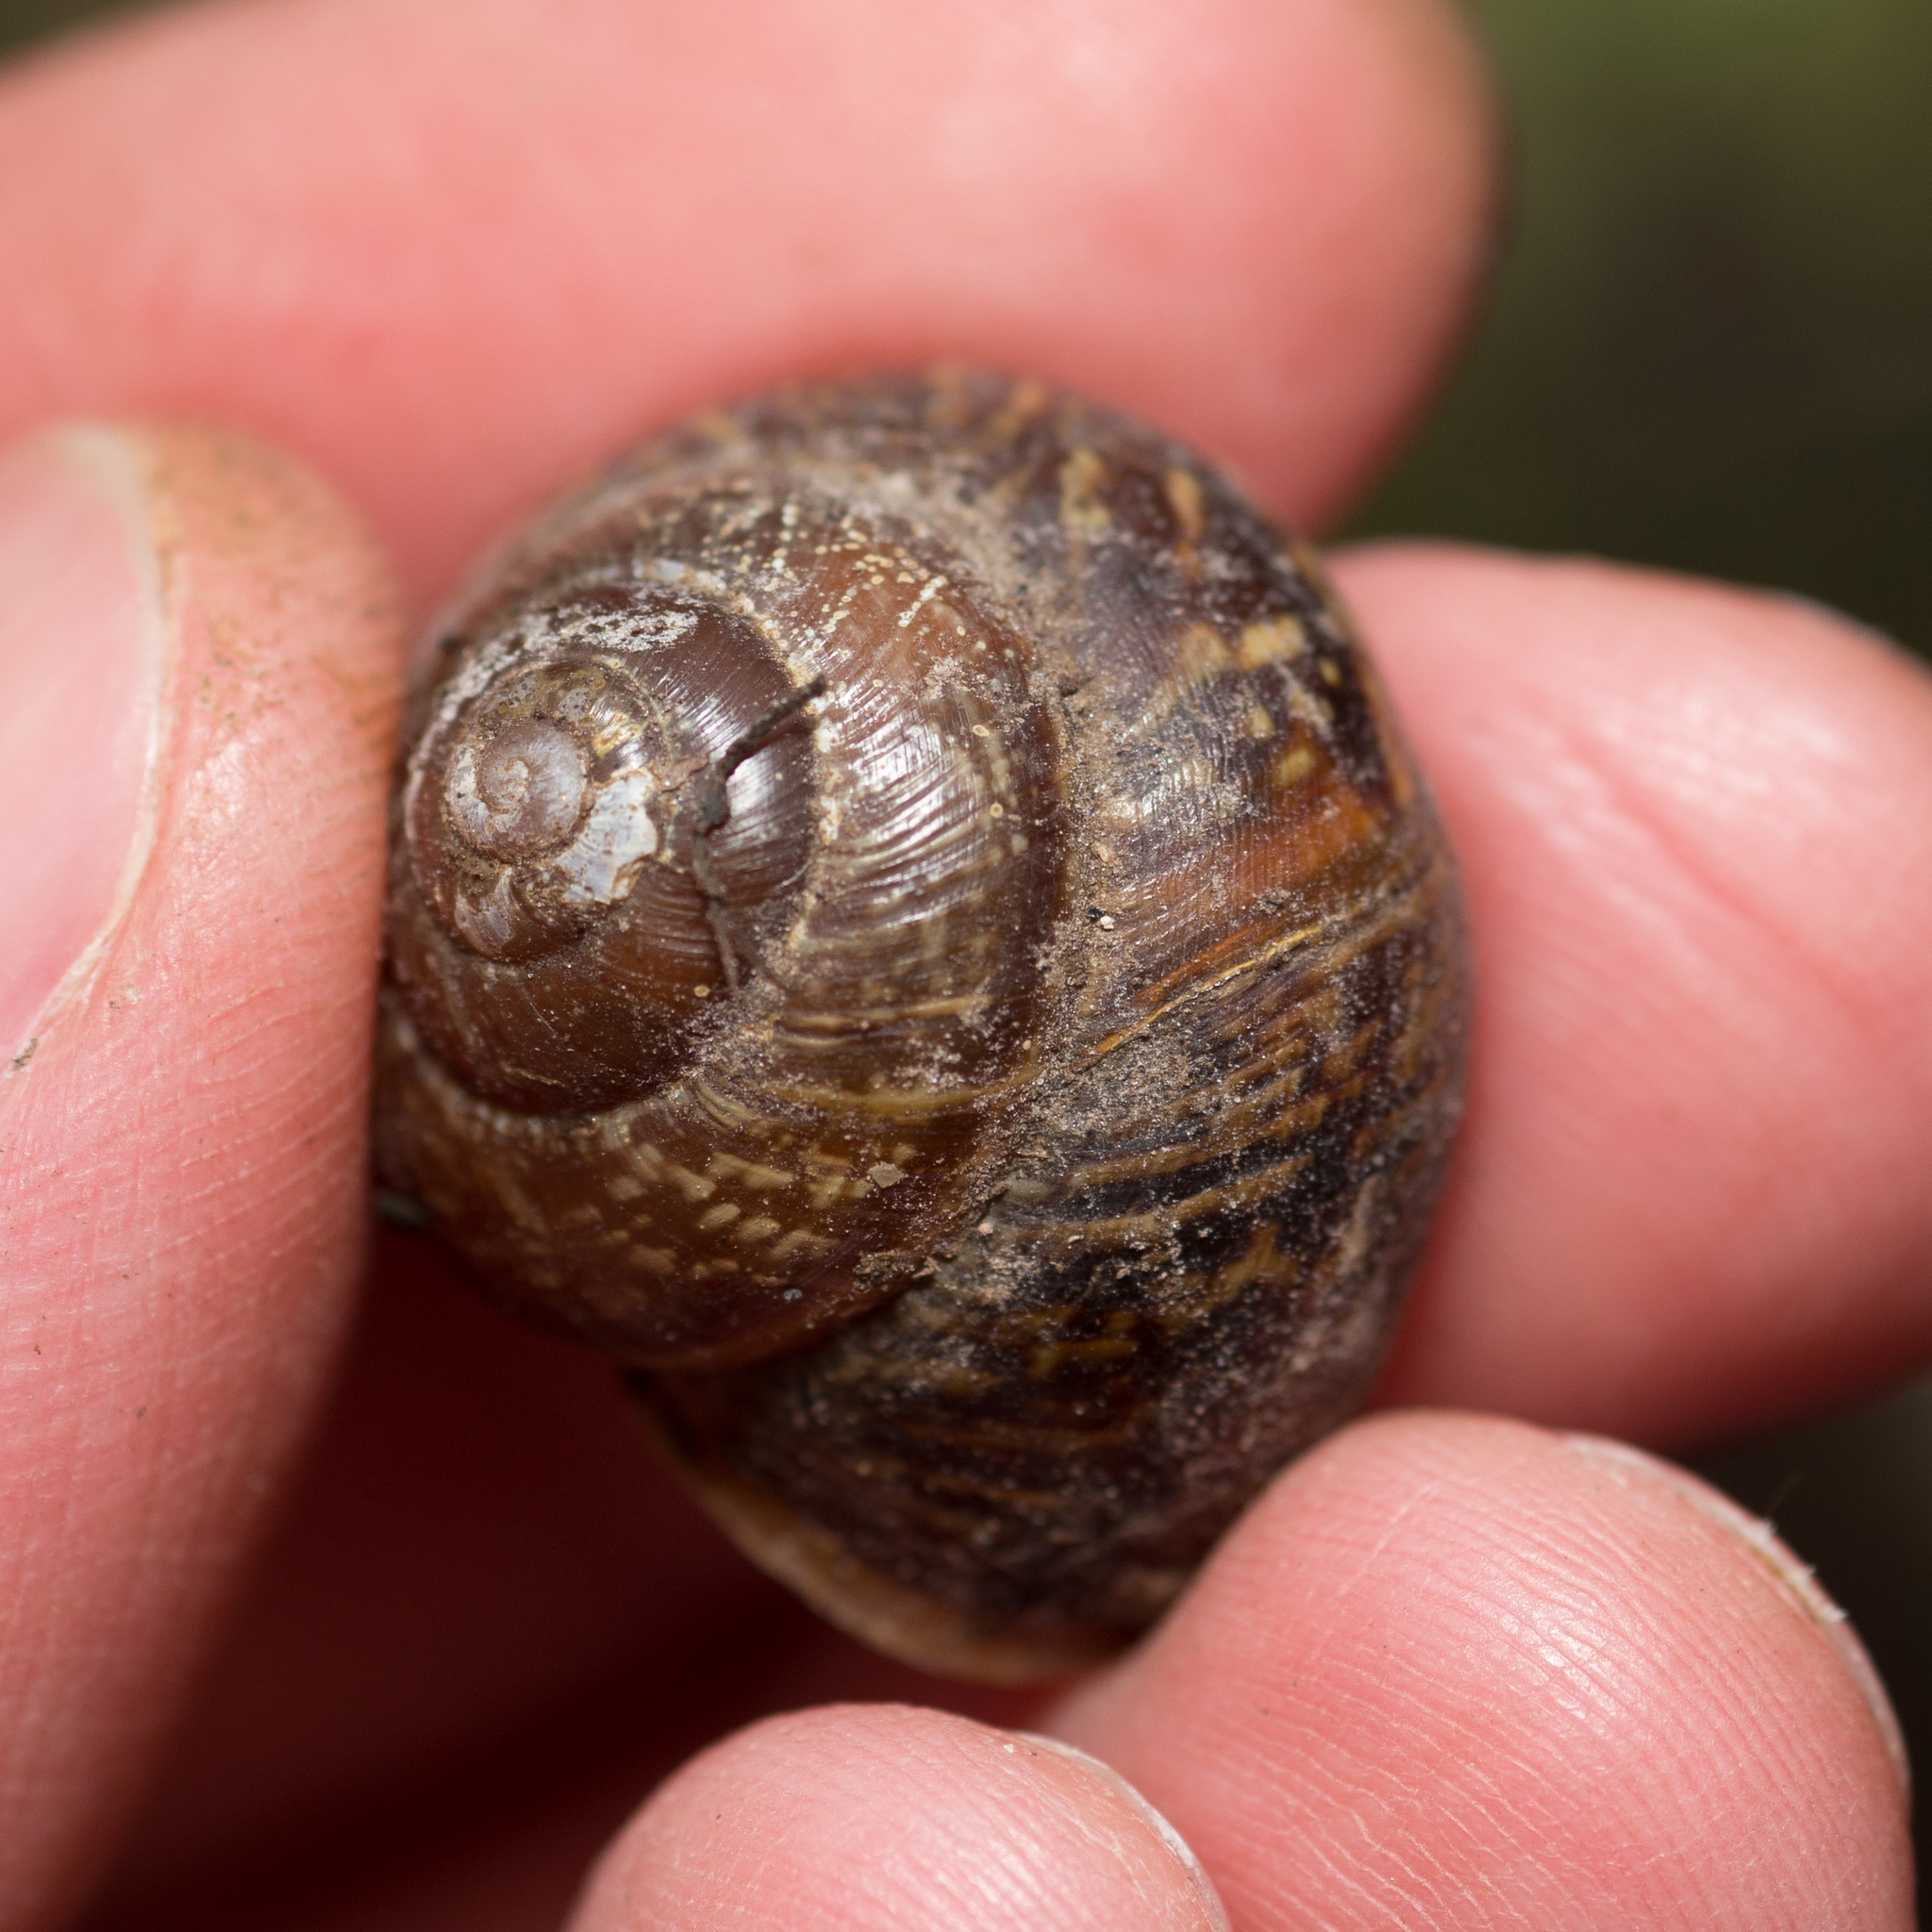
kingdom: Animalia
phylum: Mollusca
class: Gastropoda
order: Stylommatophora
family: Helicidae
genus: Arianta
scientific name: Arianta arbustorum
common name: Copse snail
